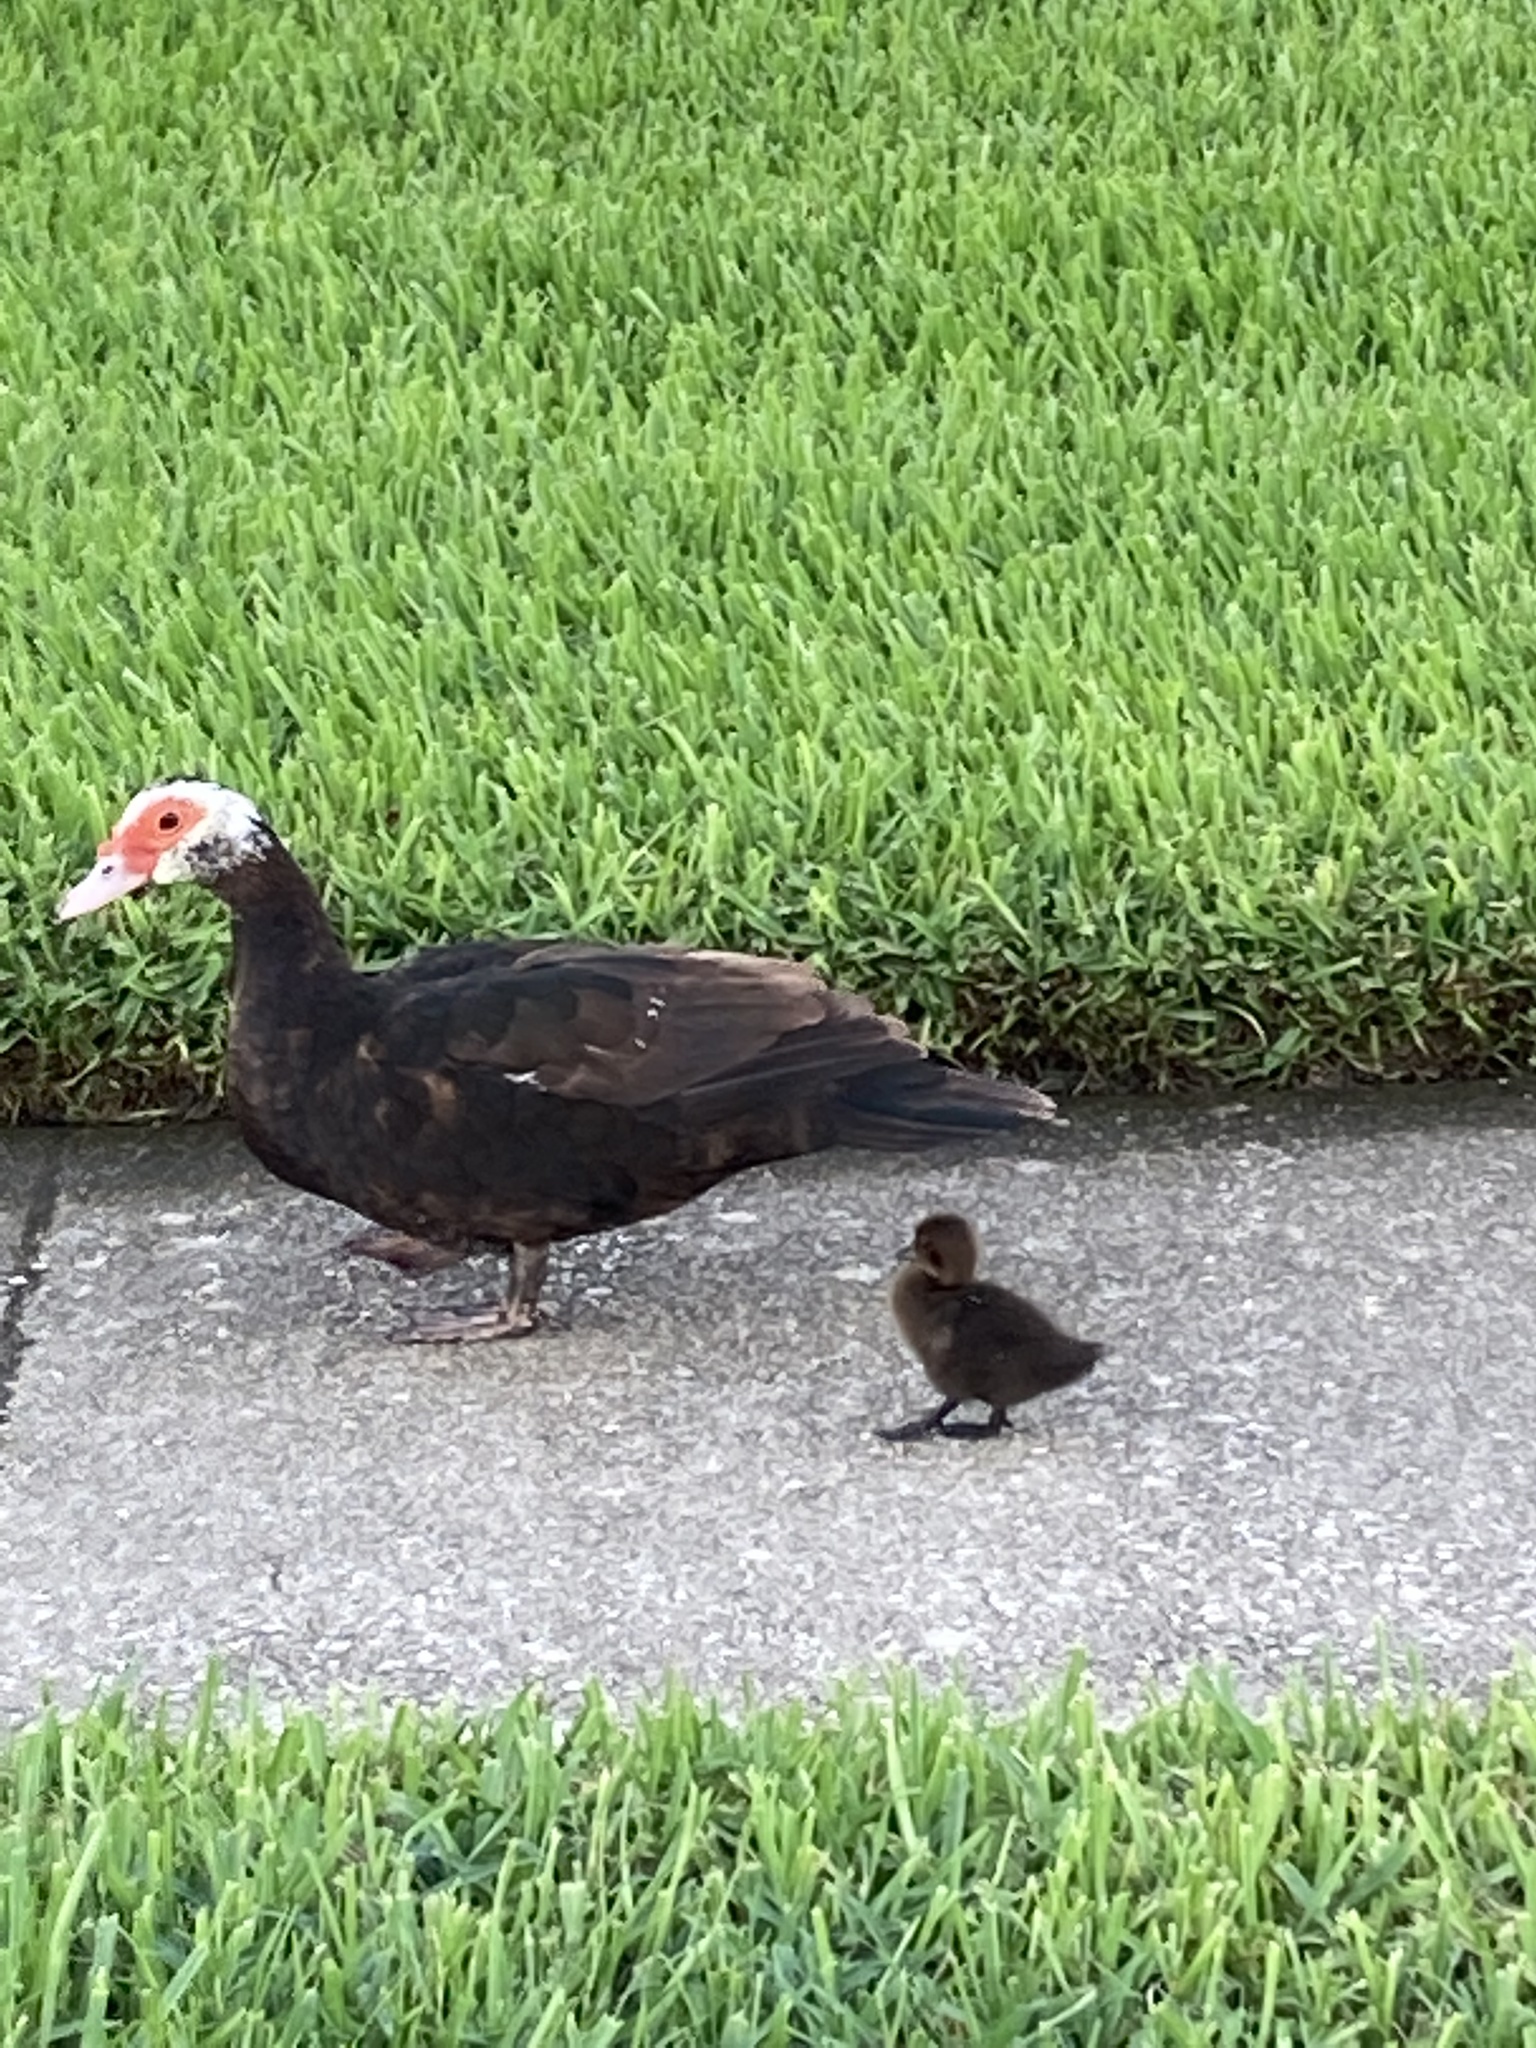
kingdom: Animalia
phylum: Chordata
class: Aves
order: Anseriformes
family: Anatidae
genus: Cairina
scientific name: Cairina moschata
